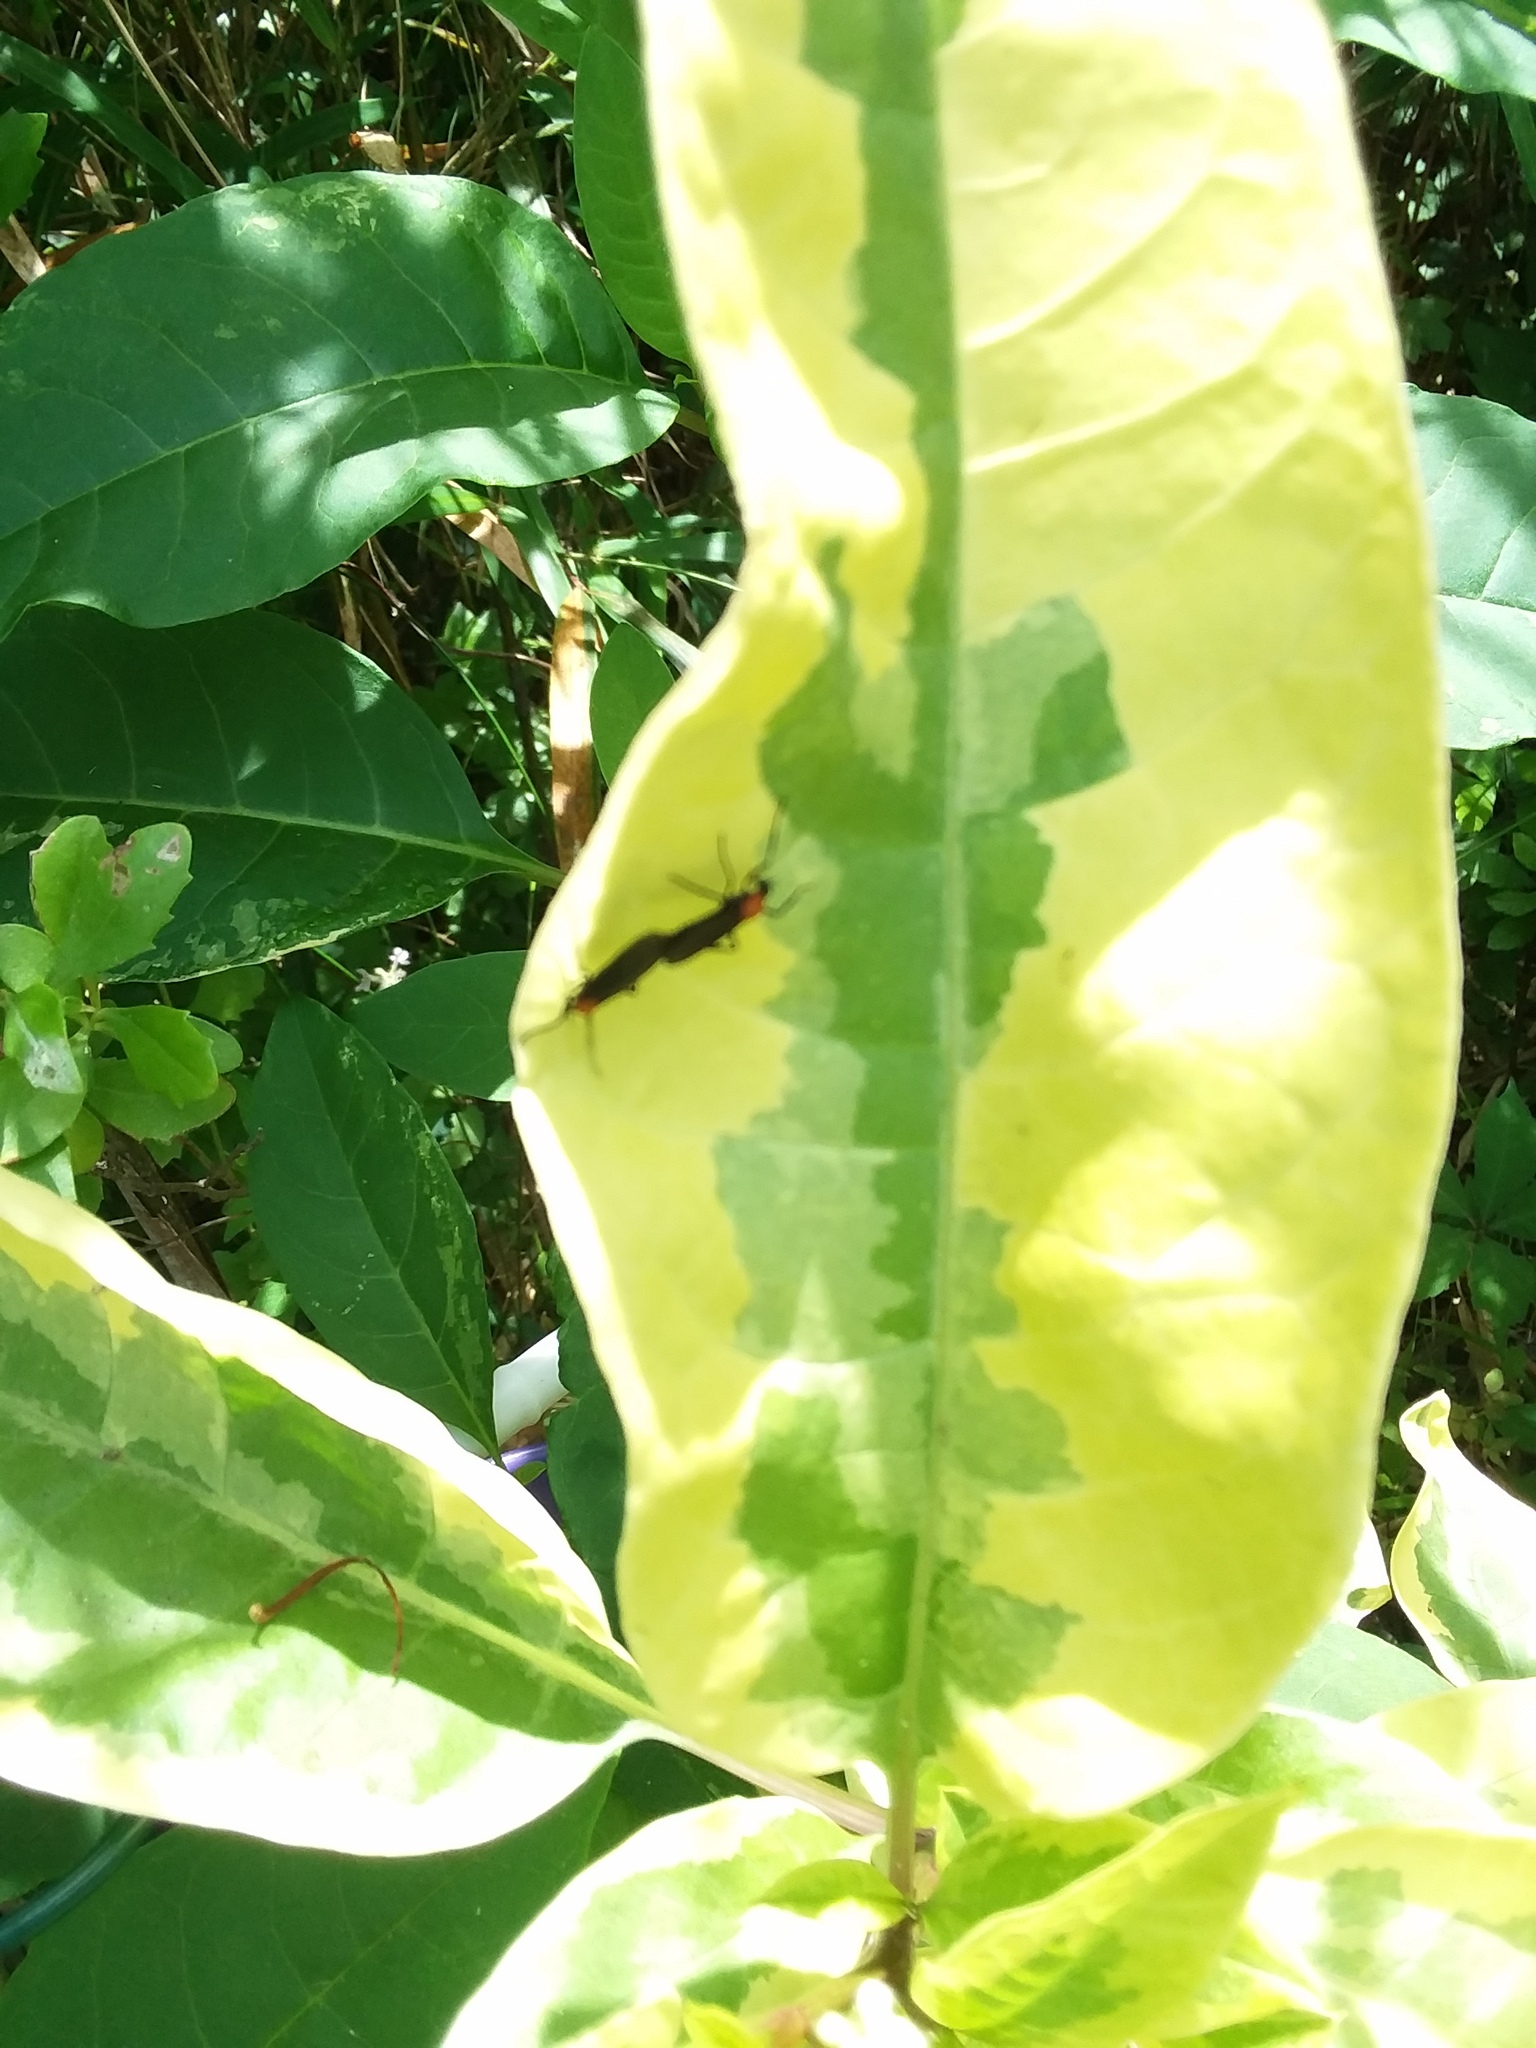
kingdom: Animalia
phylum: Arthropoda
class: Insecta
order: Diptera
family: Bibionidae
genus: Plecia
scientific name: Plecia nearctica
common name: March fly
